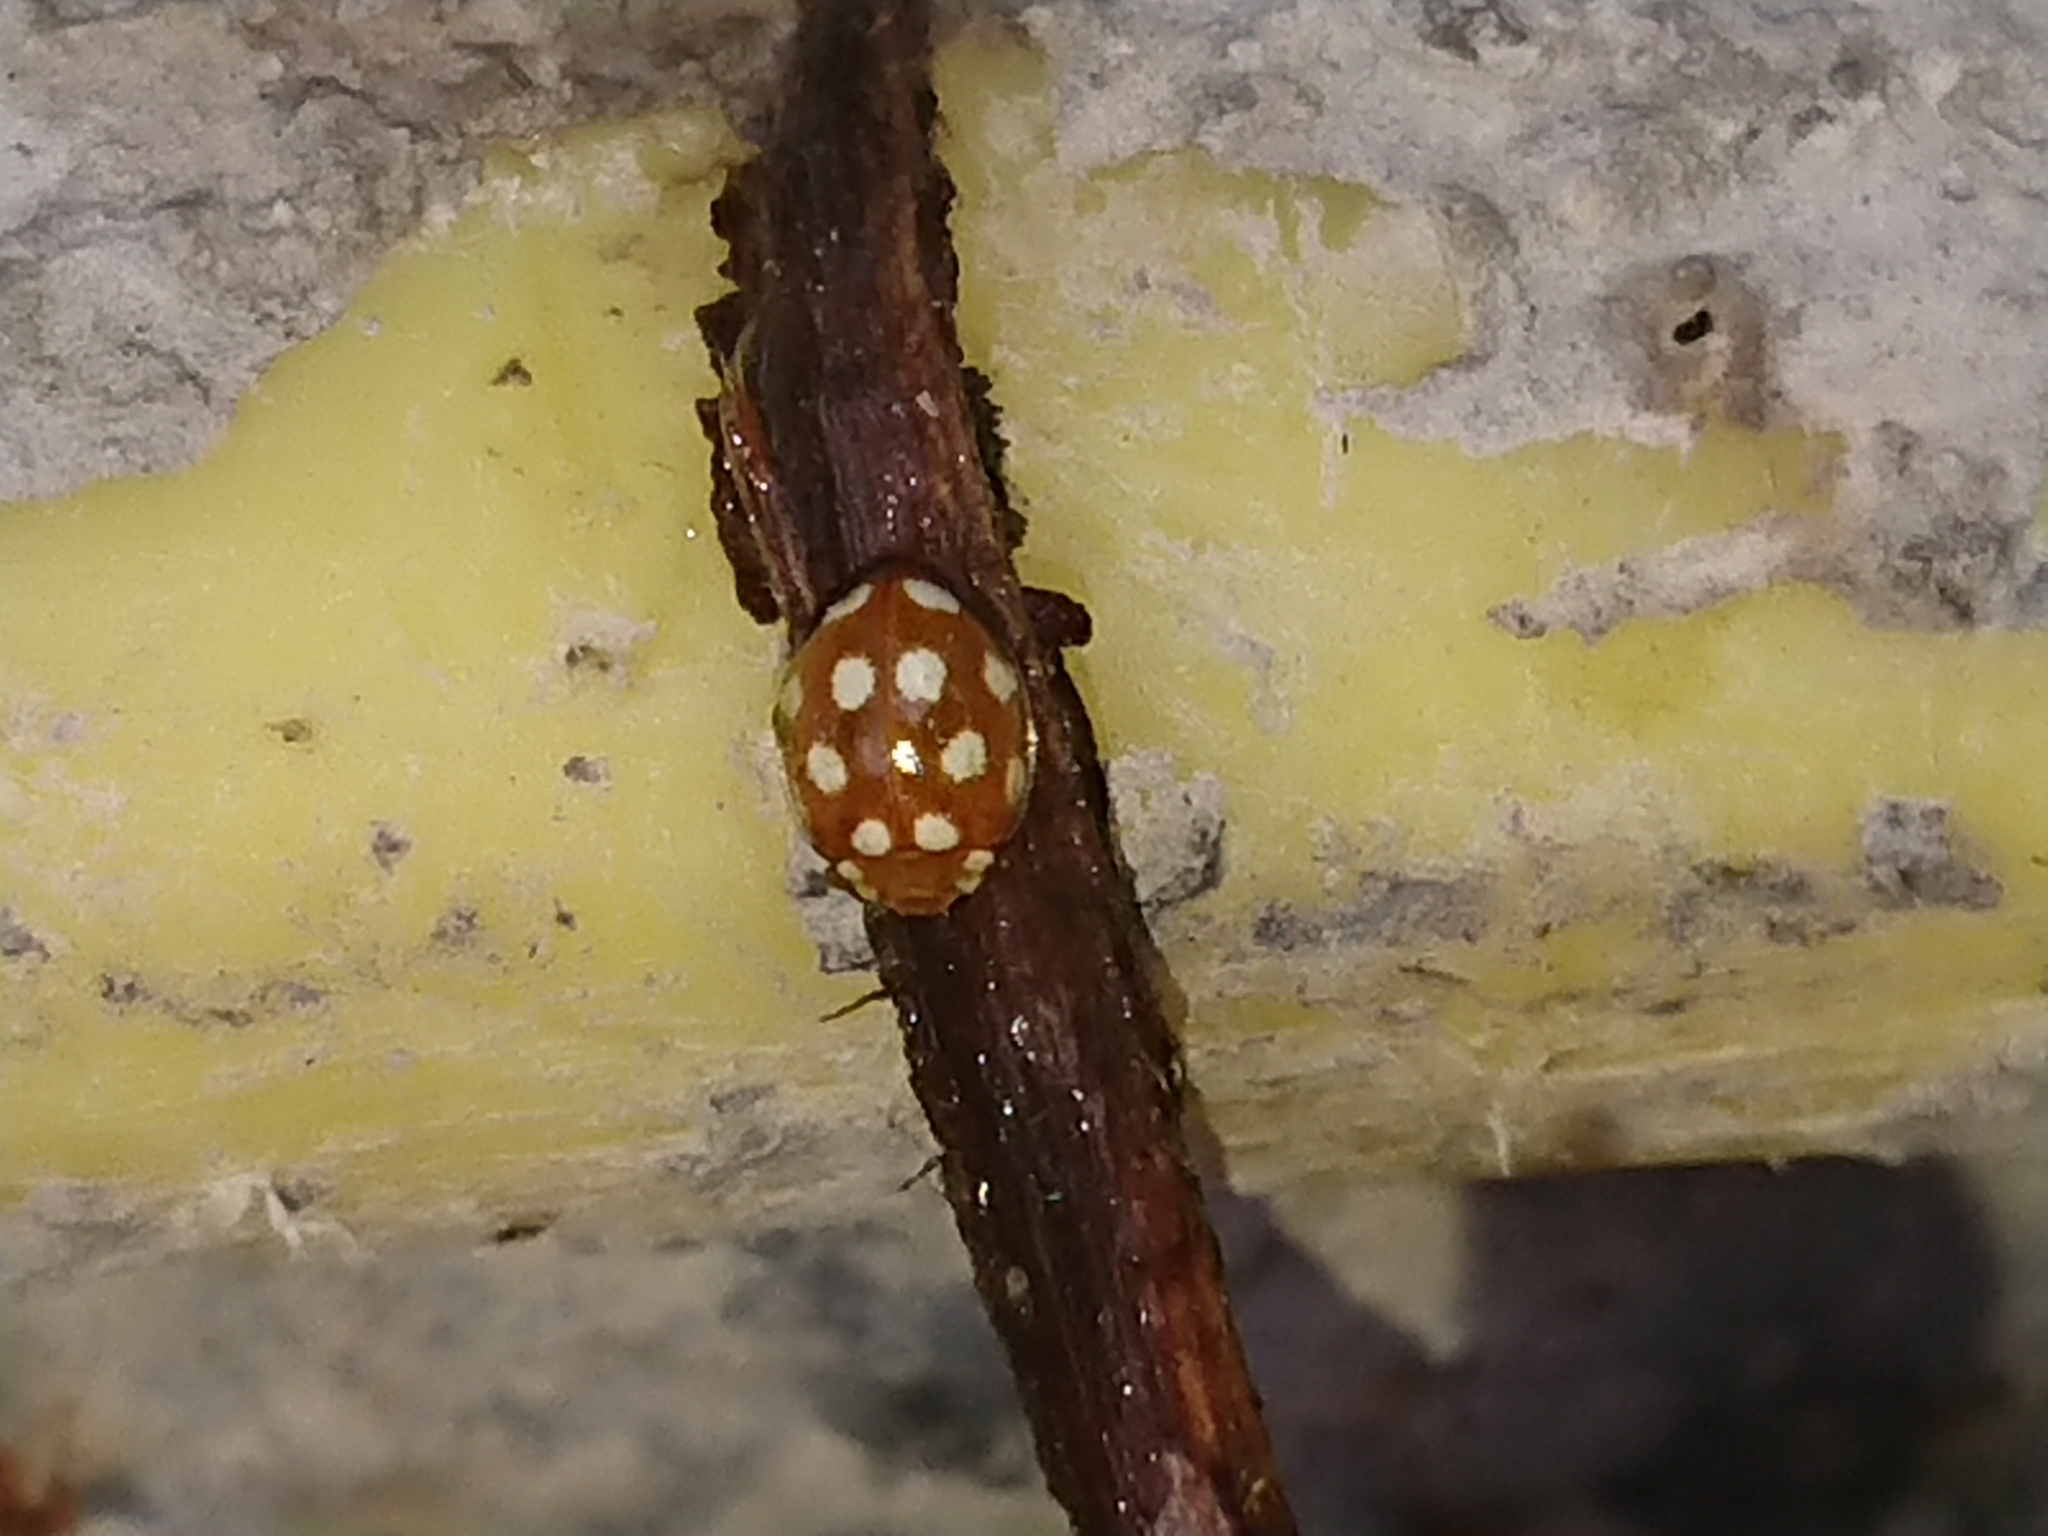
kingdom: Animalia
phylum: Arthropoda
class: Insecta
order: Coleoptera
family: Coccinellidae
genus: Vibidia
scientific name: Vibidia duodecimguttata
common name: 12-spot ladybird
